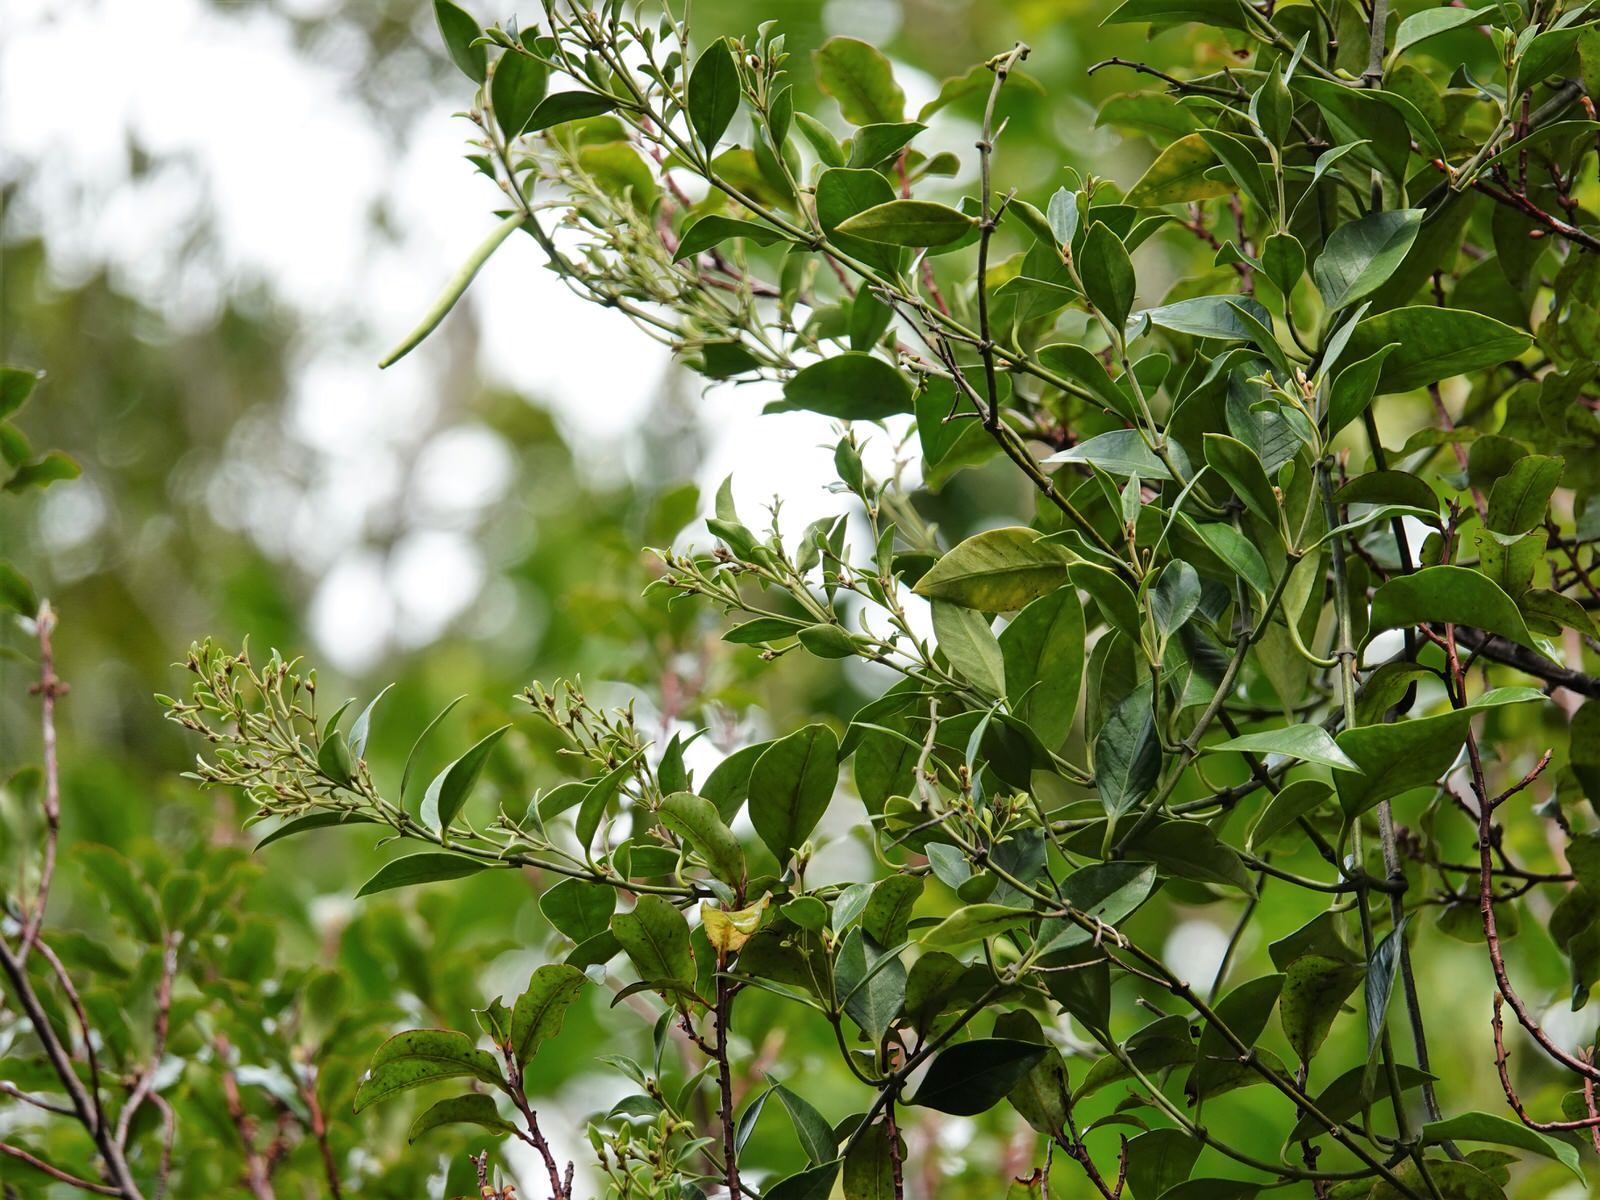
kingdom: Plantae
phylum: Tracheophyta
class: Magnoliopsida
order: Gentianales
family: Apocynaceae
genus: Parsonsia
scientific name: Parsonsia heterophylla
